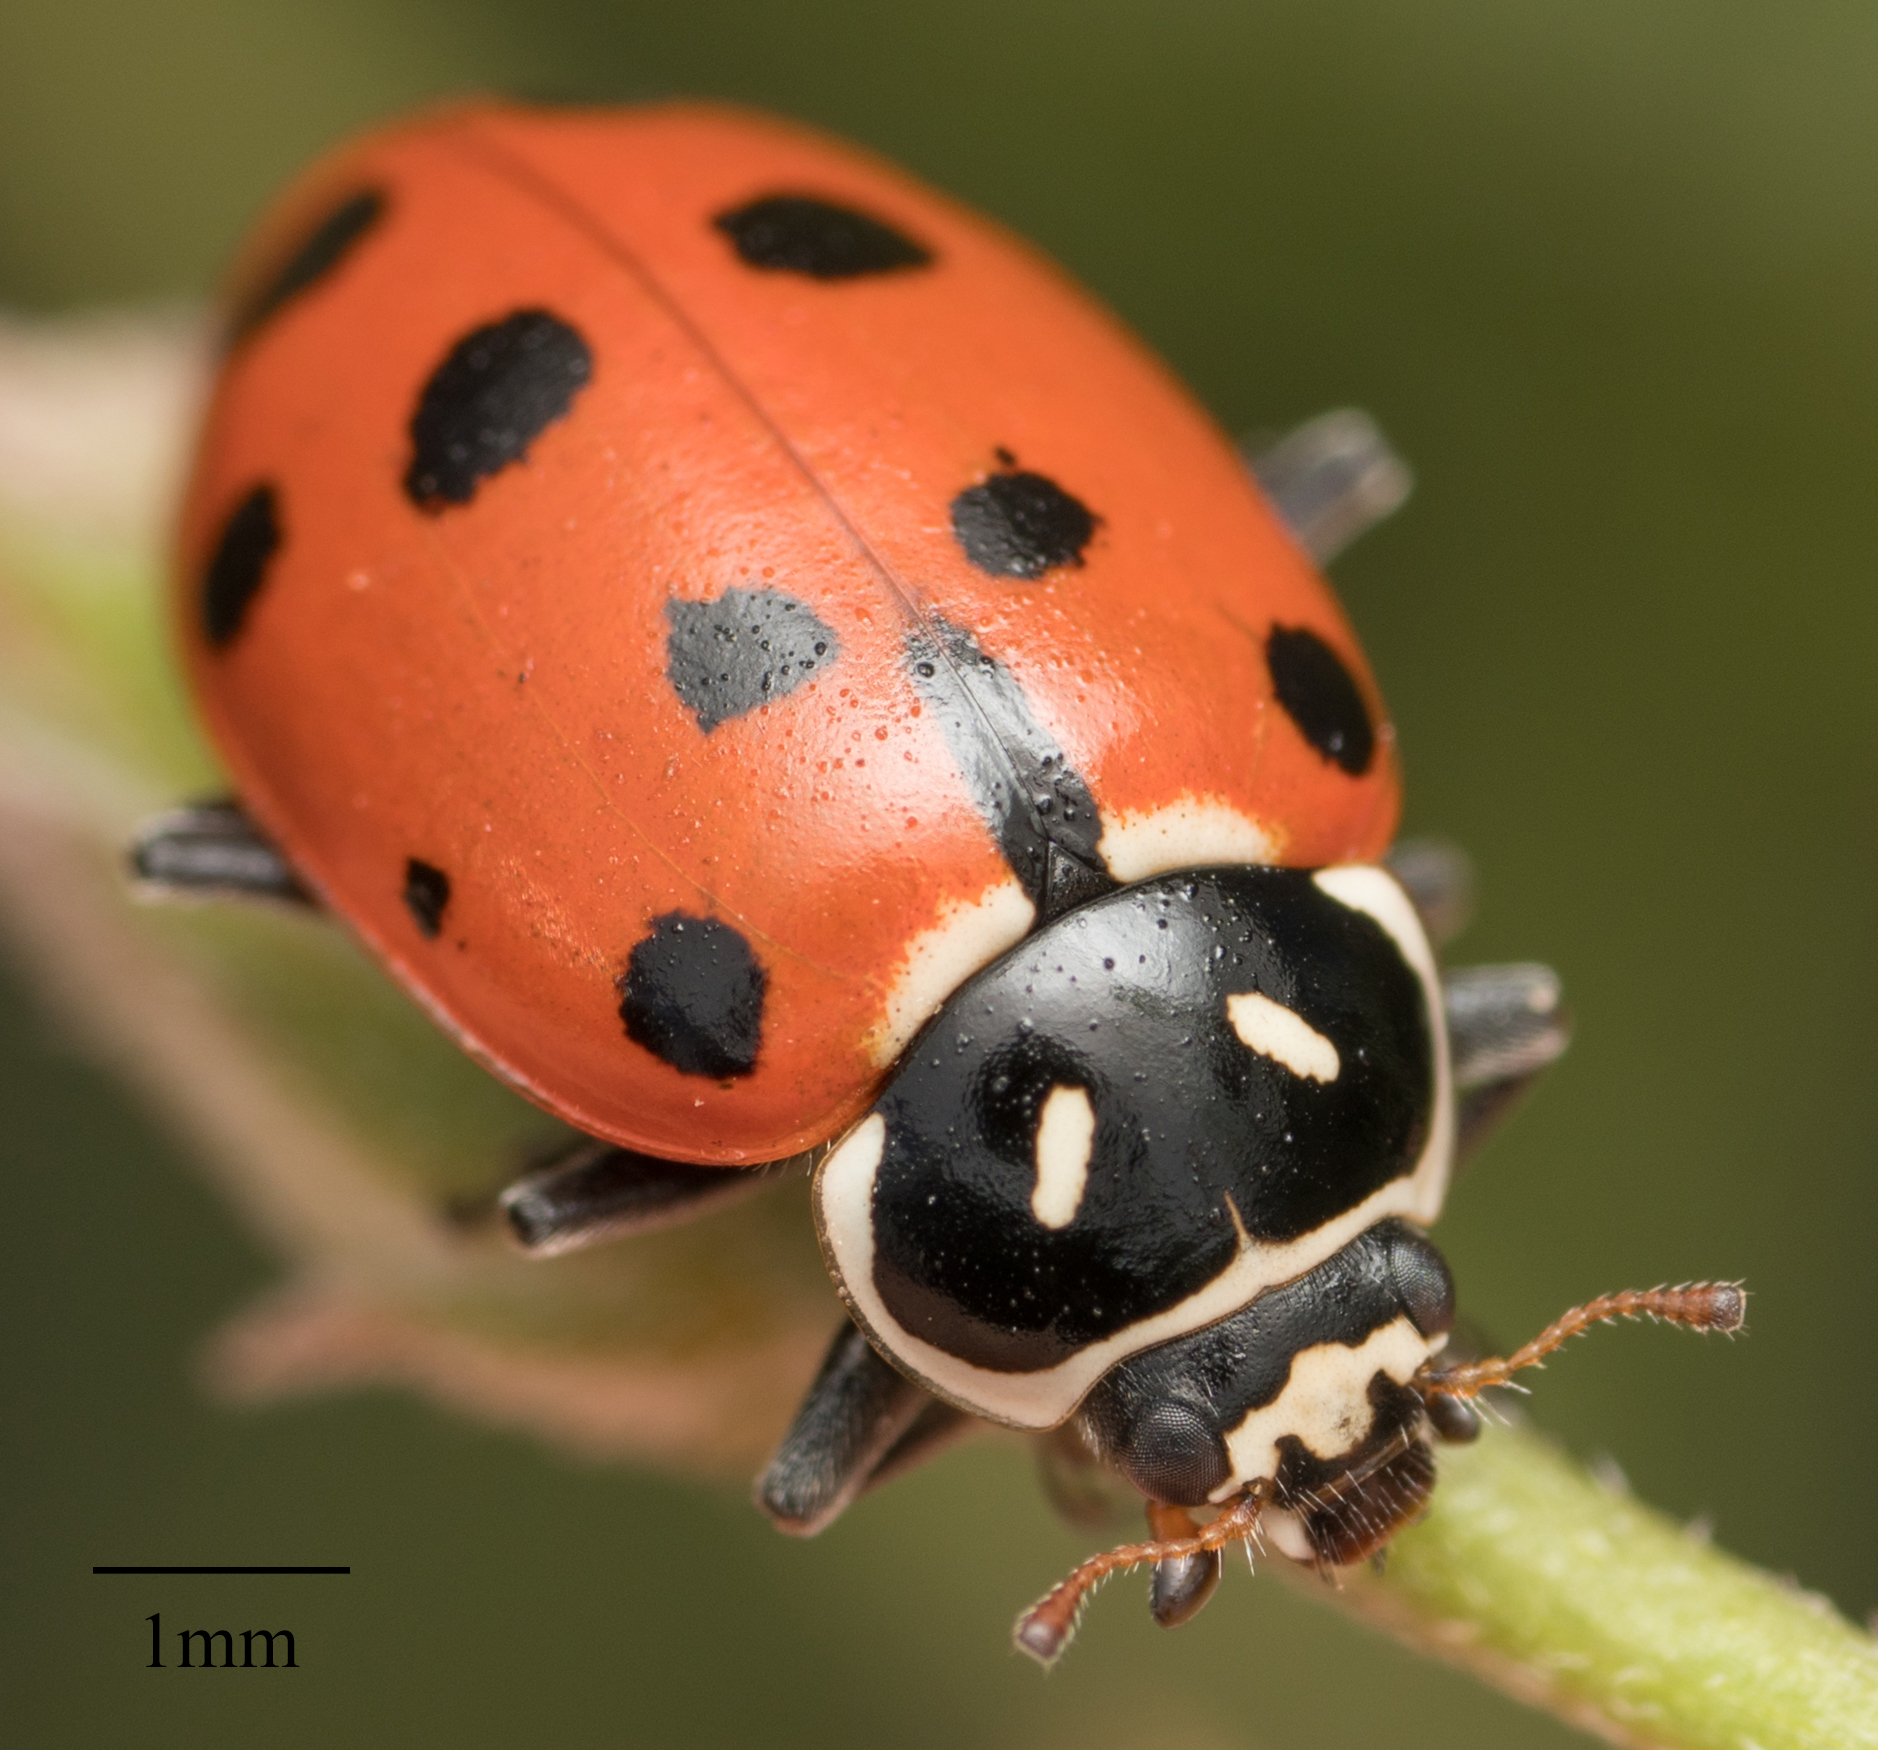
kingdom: Animalia
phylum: Arthropoda
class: Insecta
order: Coleoptera
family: Coccinellidae
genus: Hippodamia
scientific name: Hippodamia convergens
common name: Convergent lady beetle
